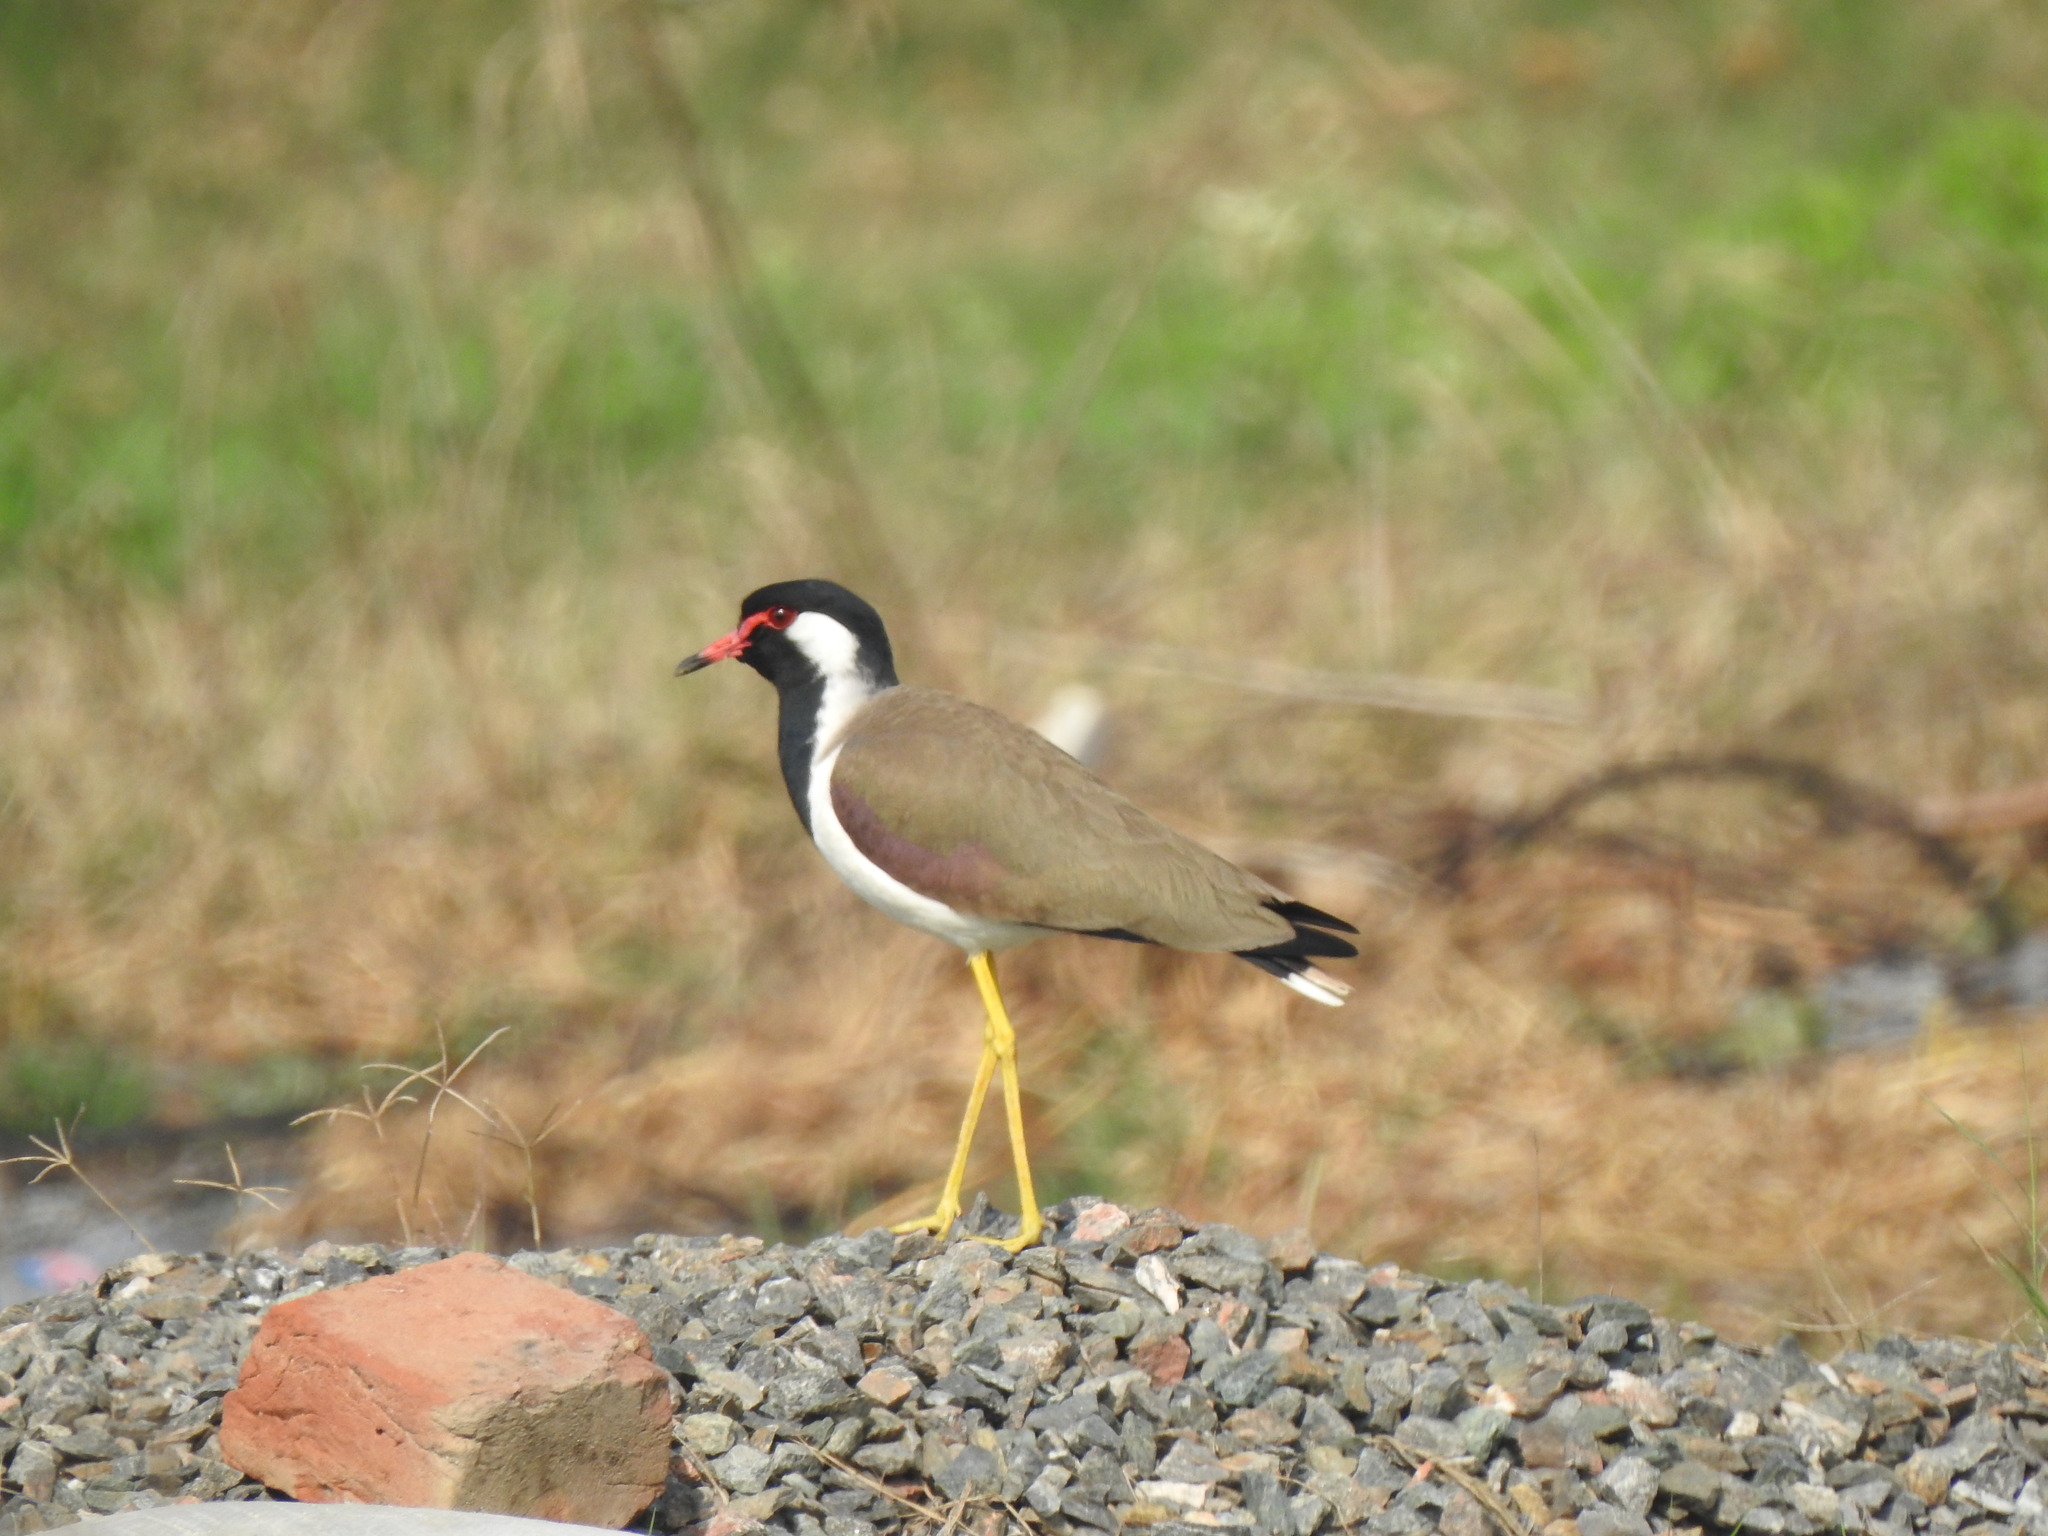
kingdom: Animalia
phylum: Chordata
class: Aves
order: Charadriiformes
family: Charadriidae
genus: Vanellus
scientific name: Vanellus indicus
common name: Red-wattled lapwing
